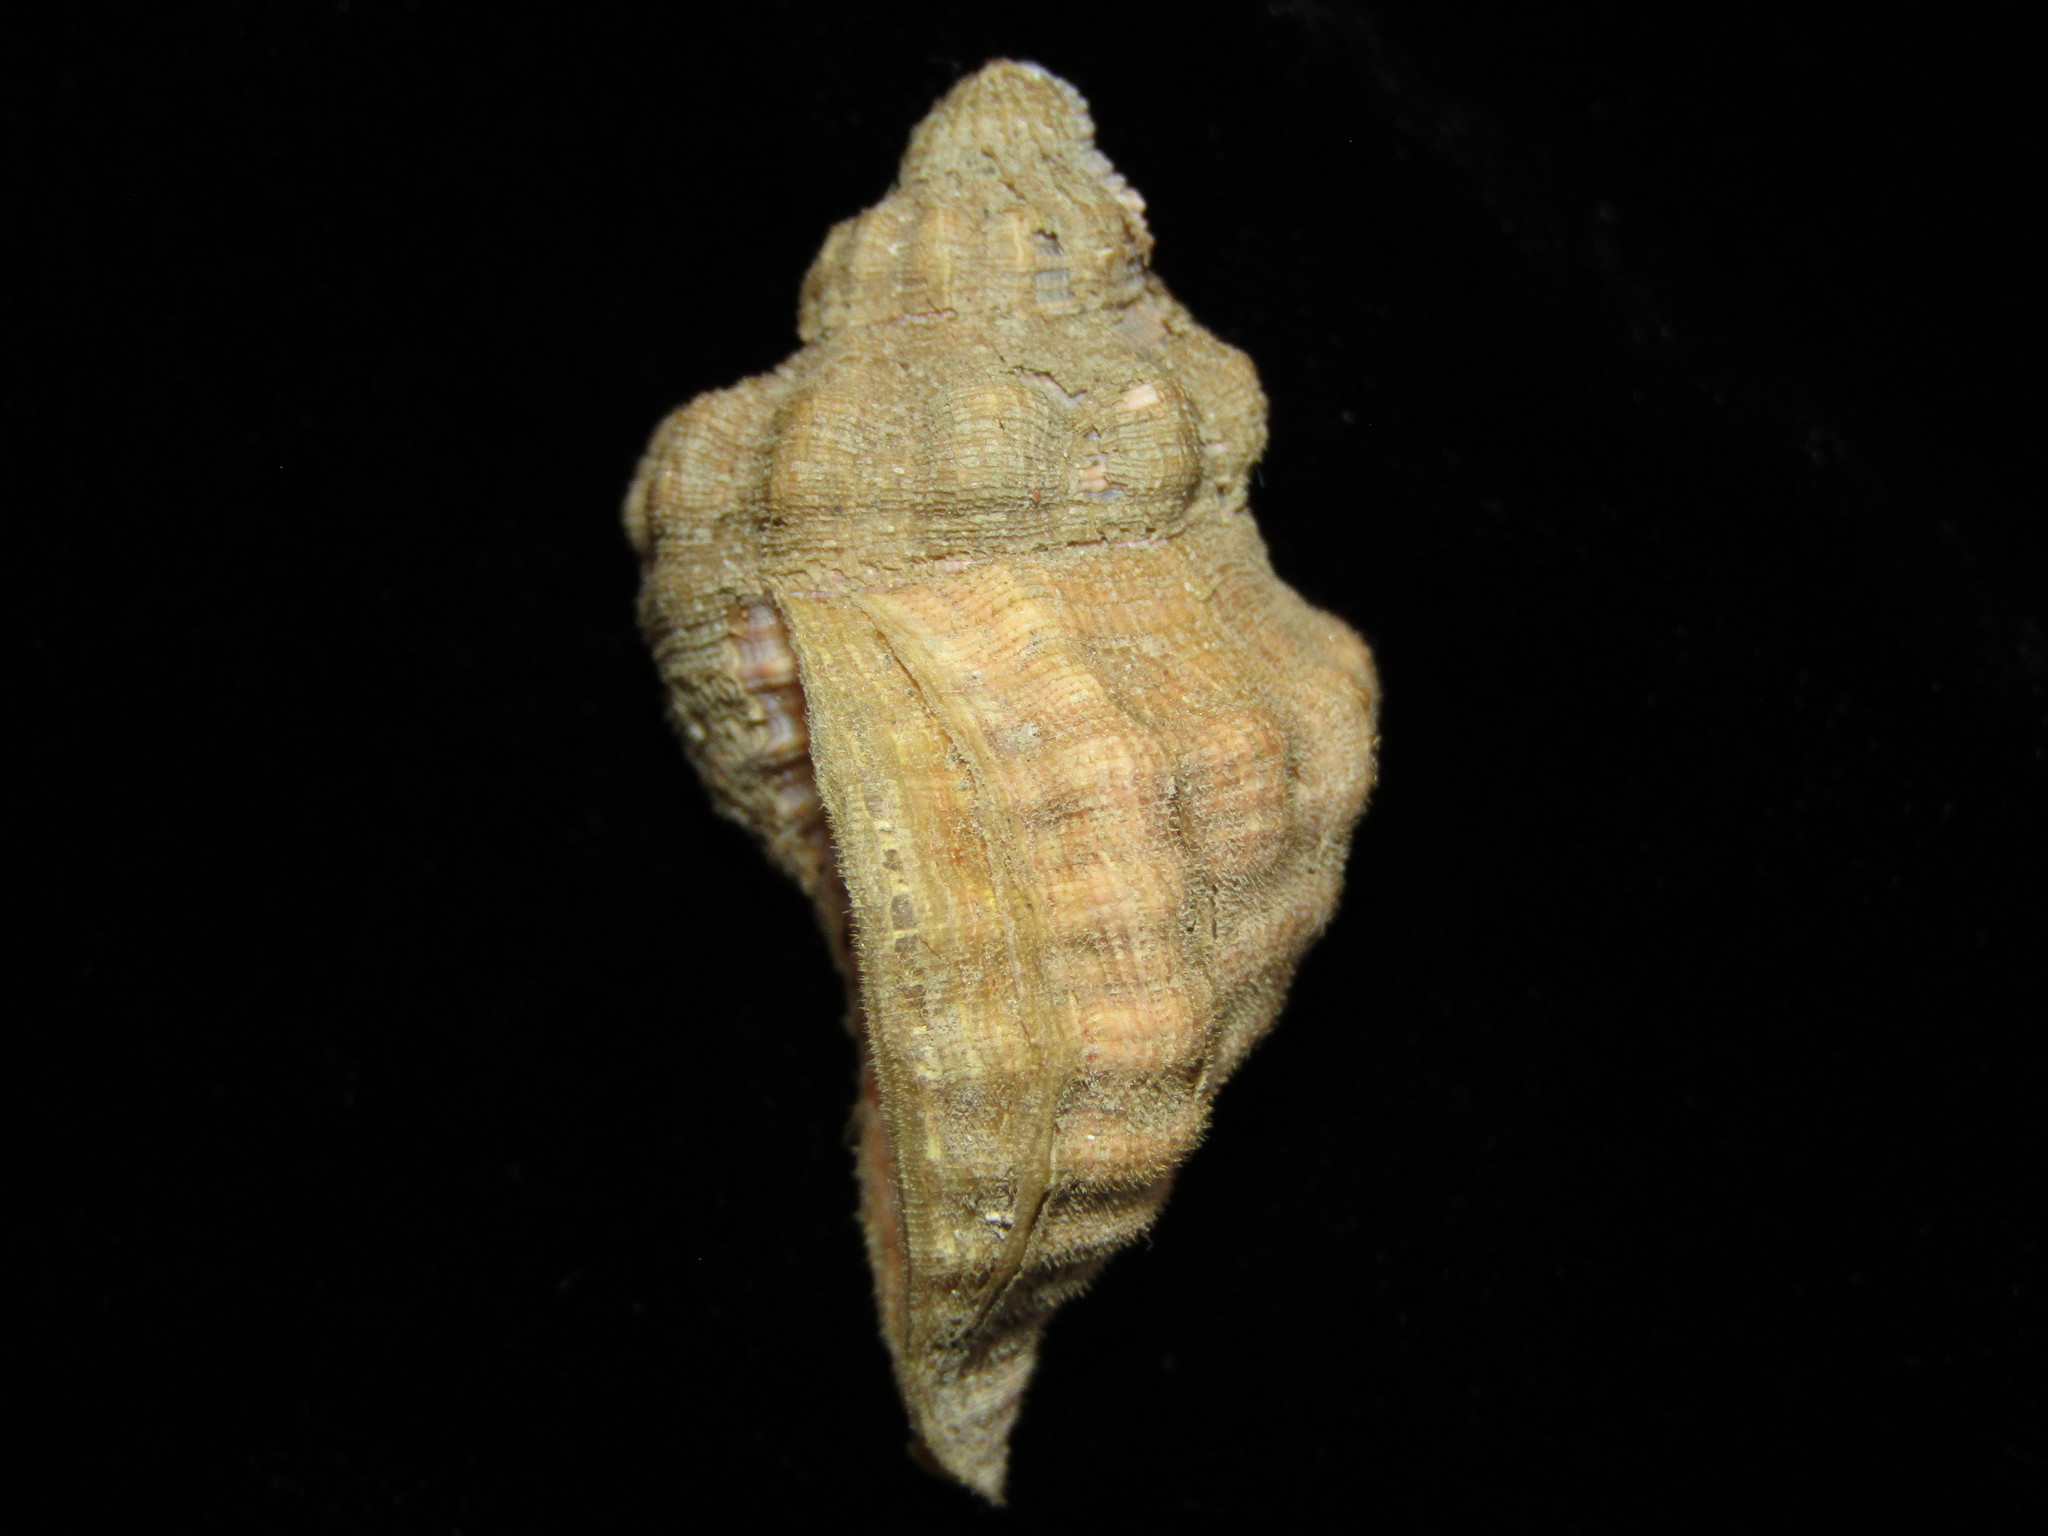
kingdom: Animalia
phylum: Mollusca
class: Gastropoda
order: Littorinimorpha
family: Cymatiidae
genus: Cabestana
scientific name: Cabestana spengleri
